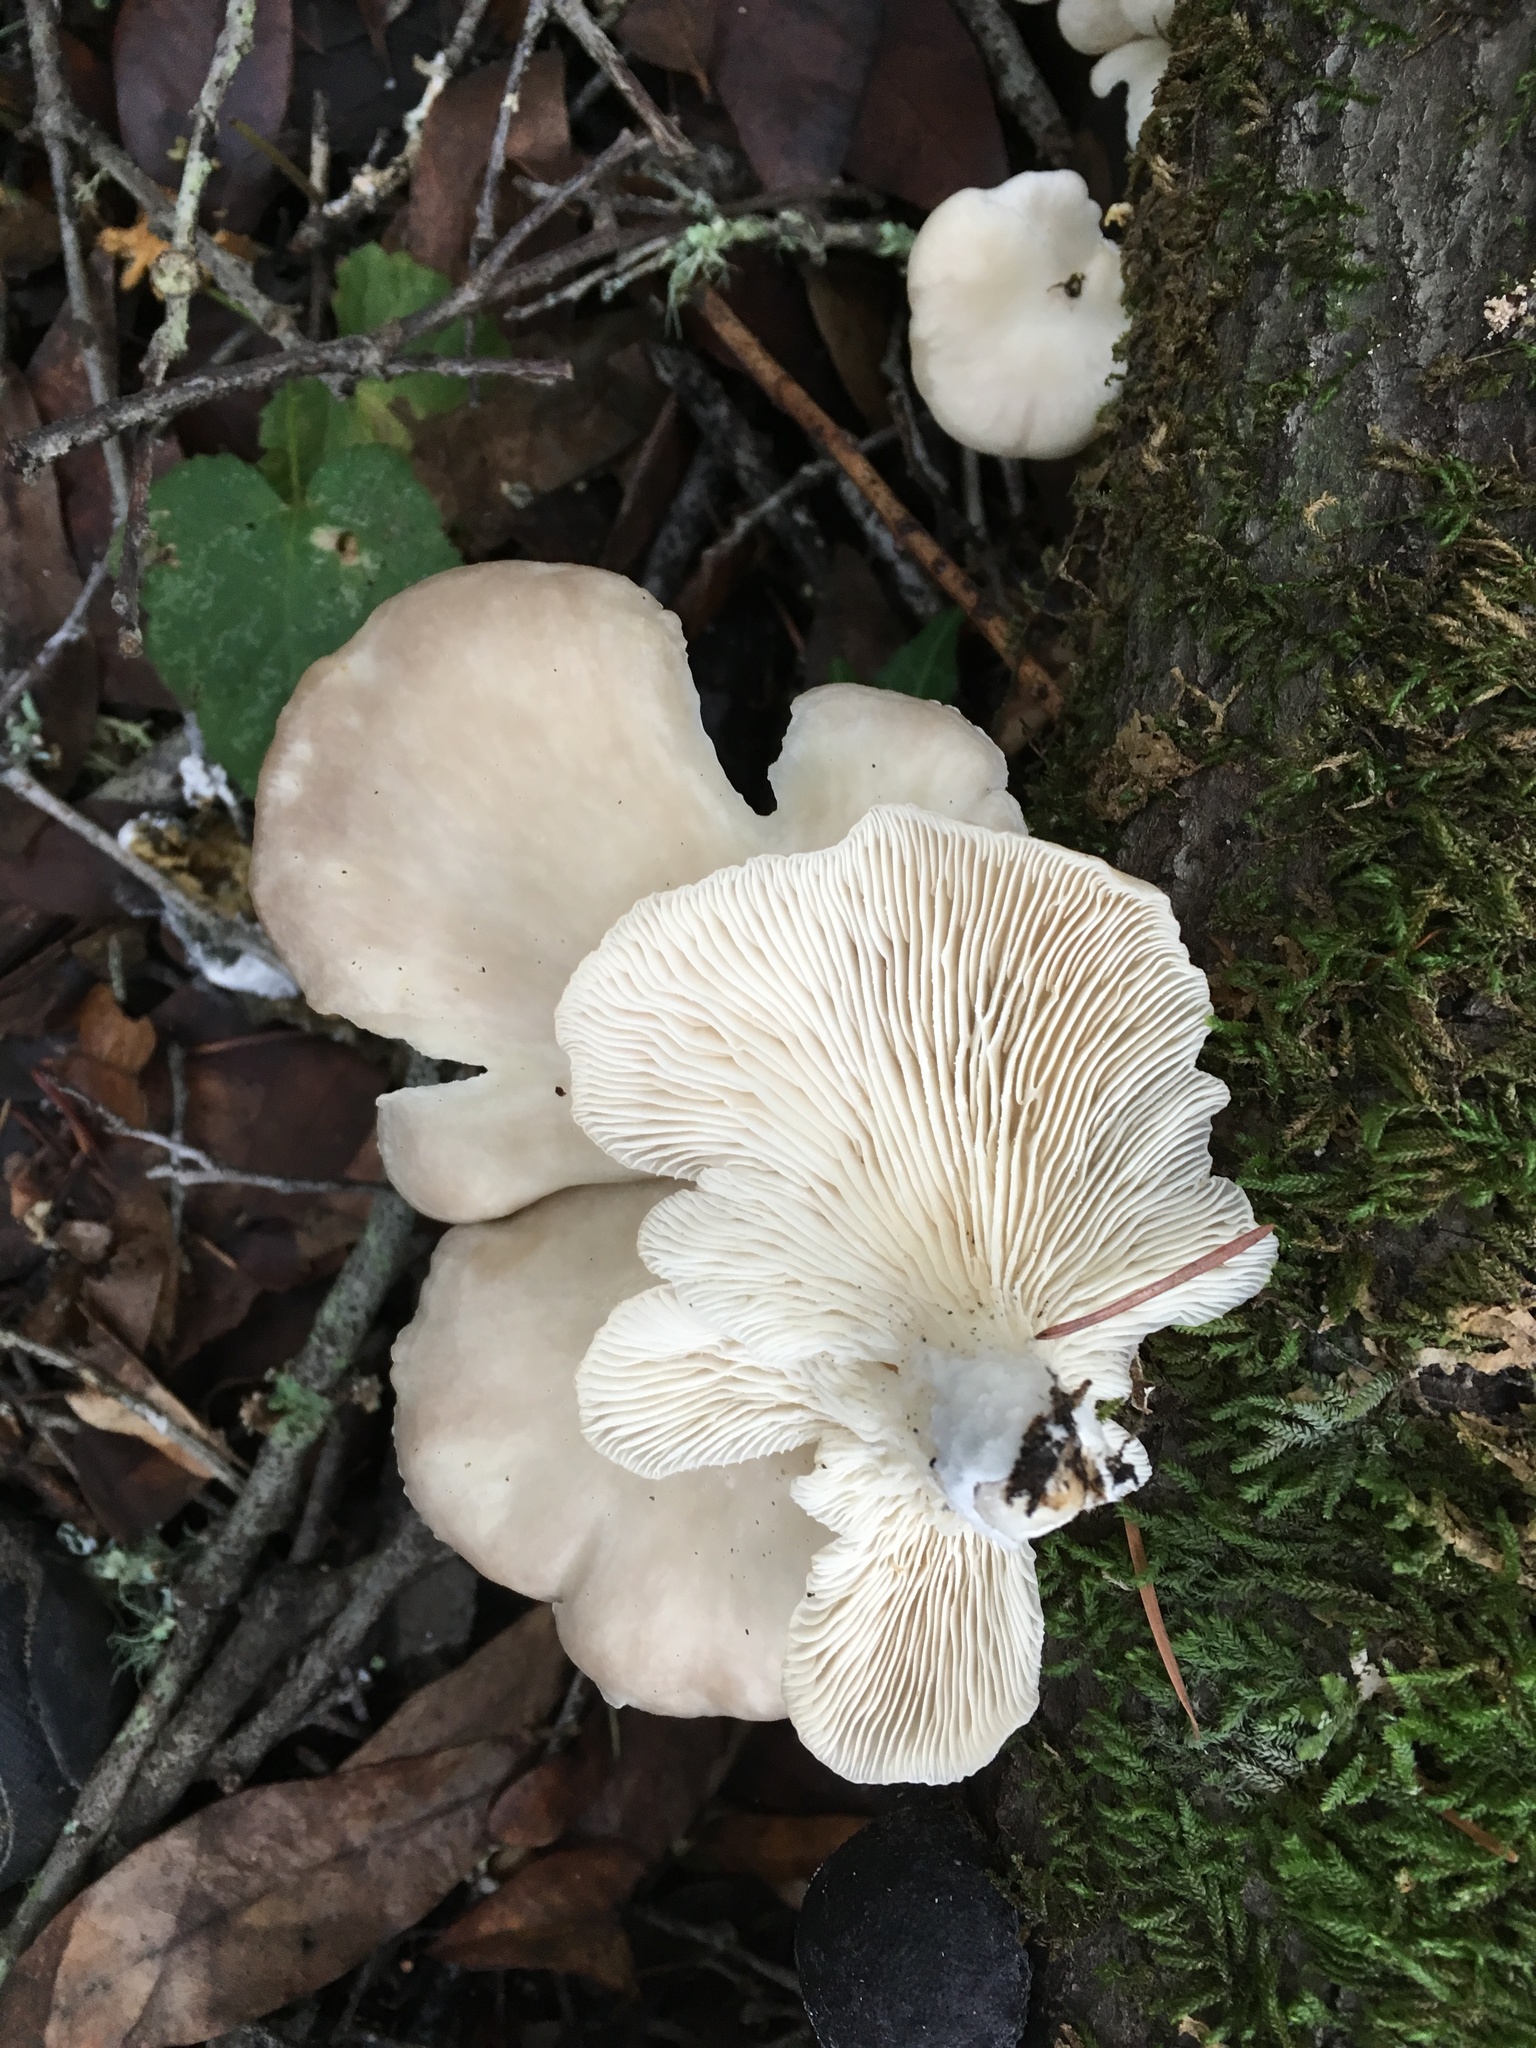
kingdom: Fungi
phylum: Basidiomycota
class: Agaricomycetes
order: Agaricales
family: Pleurotaceae
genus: Pleurotus
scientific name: Pleurotus pulmonarius
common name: Pale oyster
